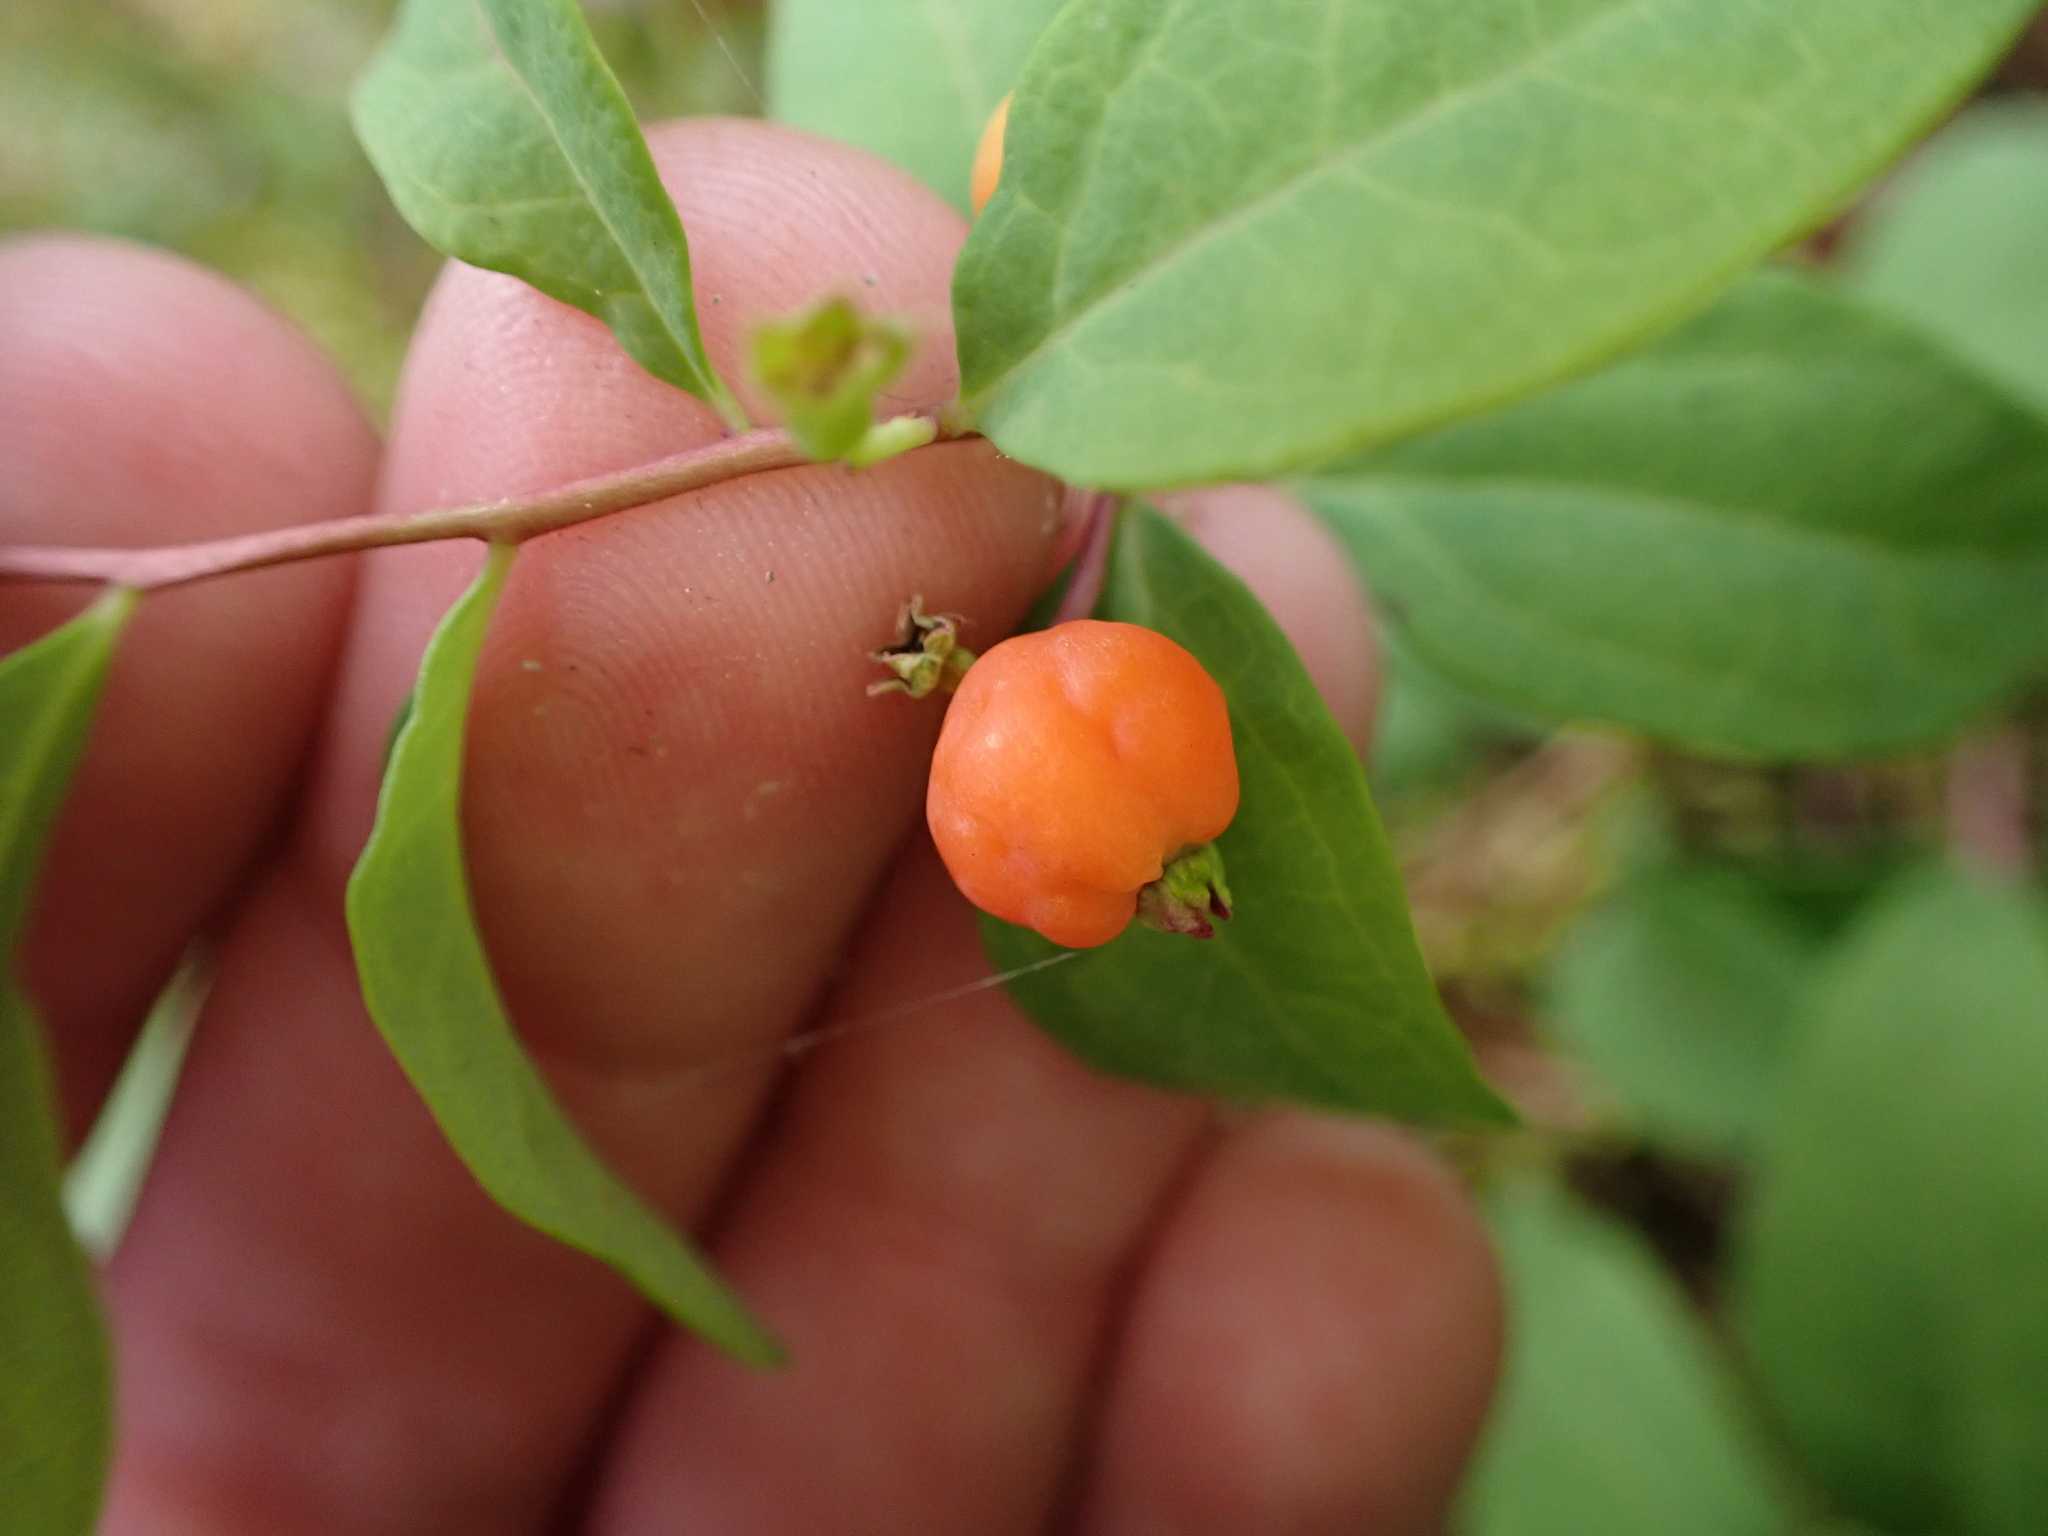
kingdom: Plantae
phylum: Tracheophyta
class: Magnoliopsida
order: Santalales
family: Comandraceae
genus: Geocaulon
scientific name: Geocaulon lividum
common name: Earthberry
